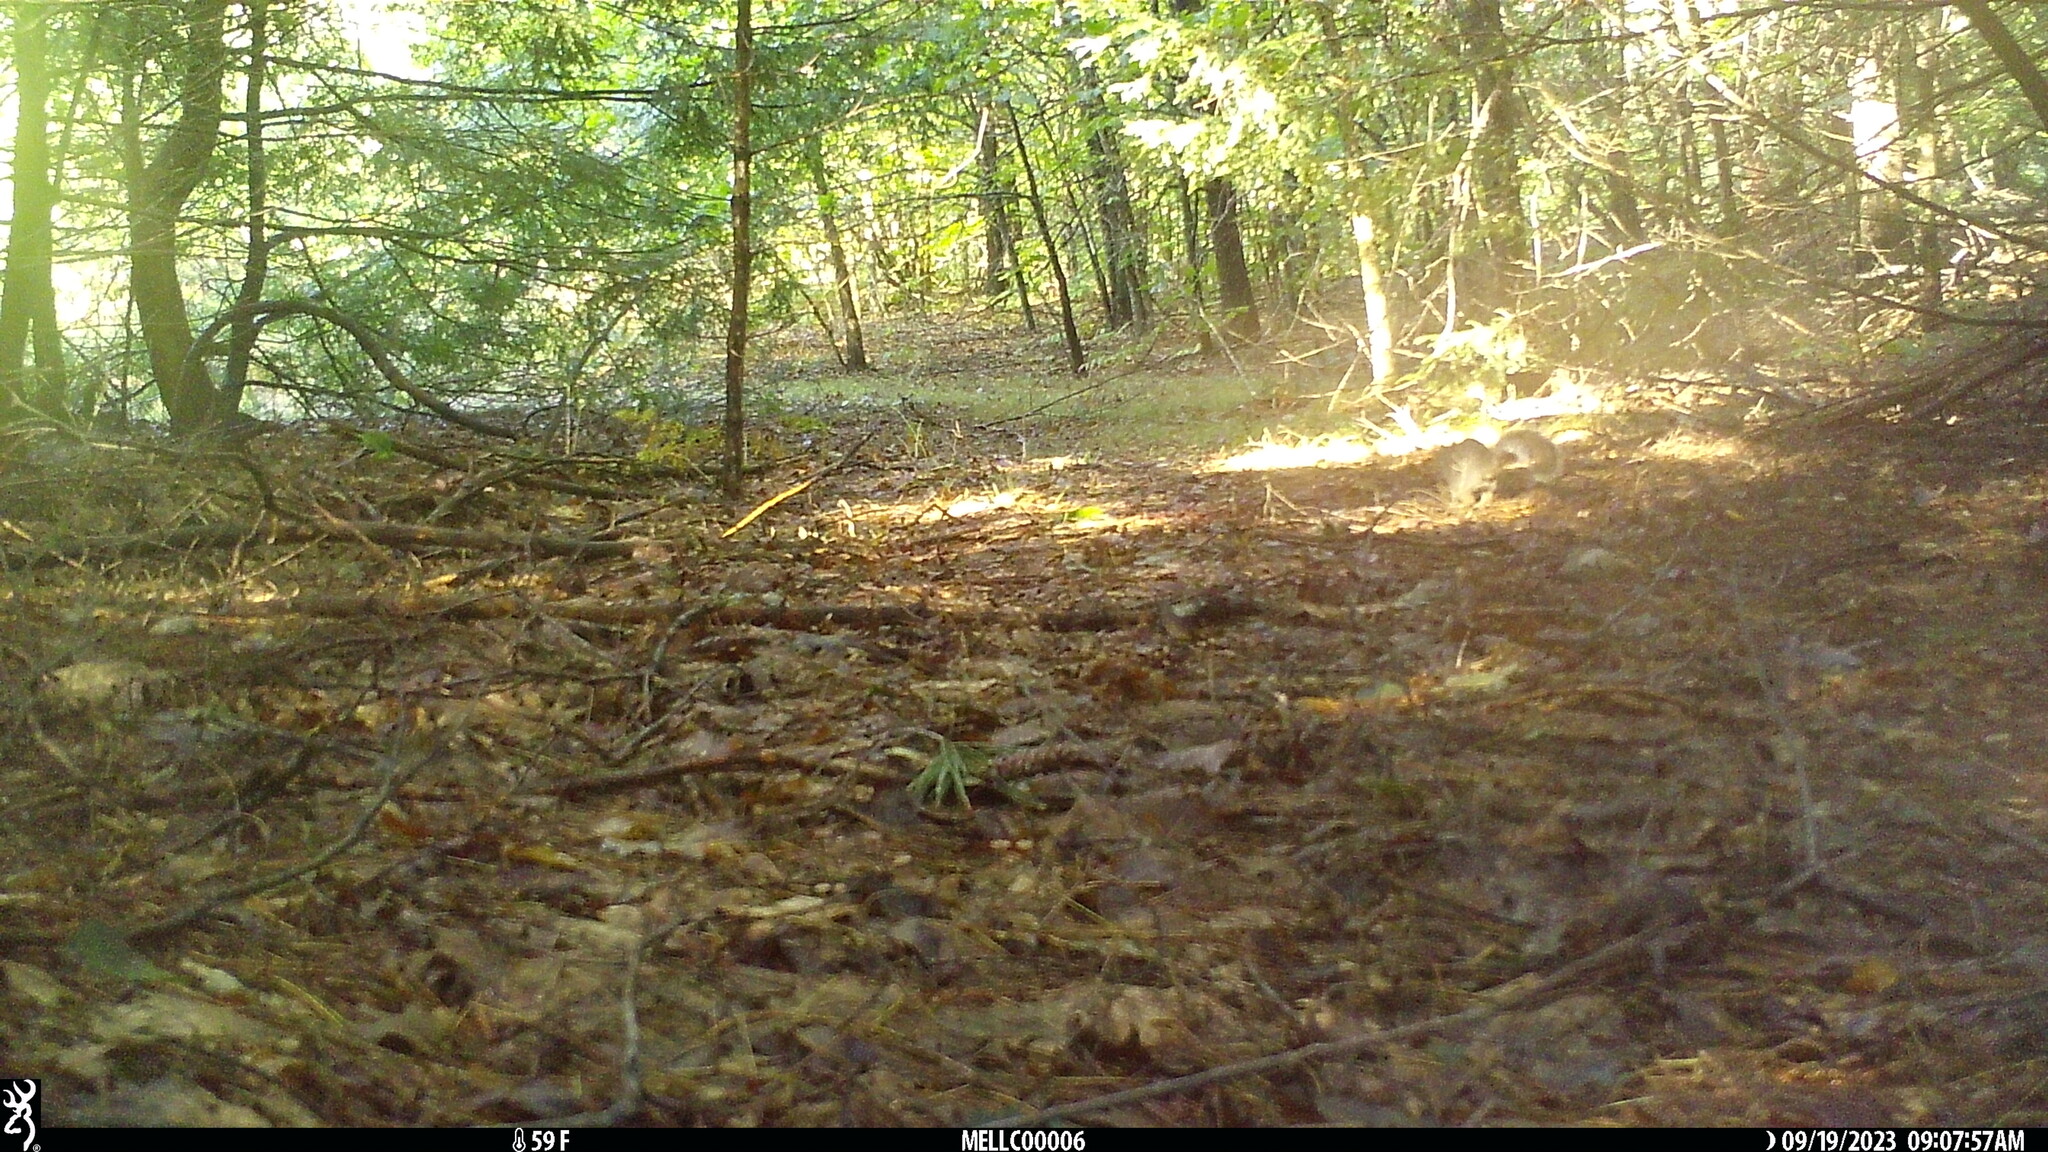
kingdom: Animalia
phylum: Chordata
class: Mammalia
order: Rodentia
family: Sciuridae
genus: Sciurus
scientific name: Sciurus carolinensis
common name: Eastern gray squirrel
